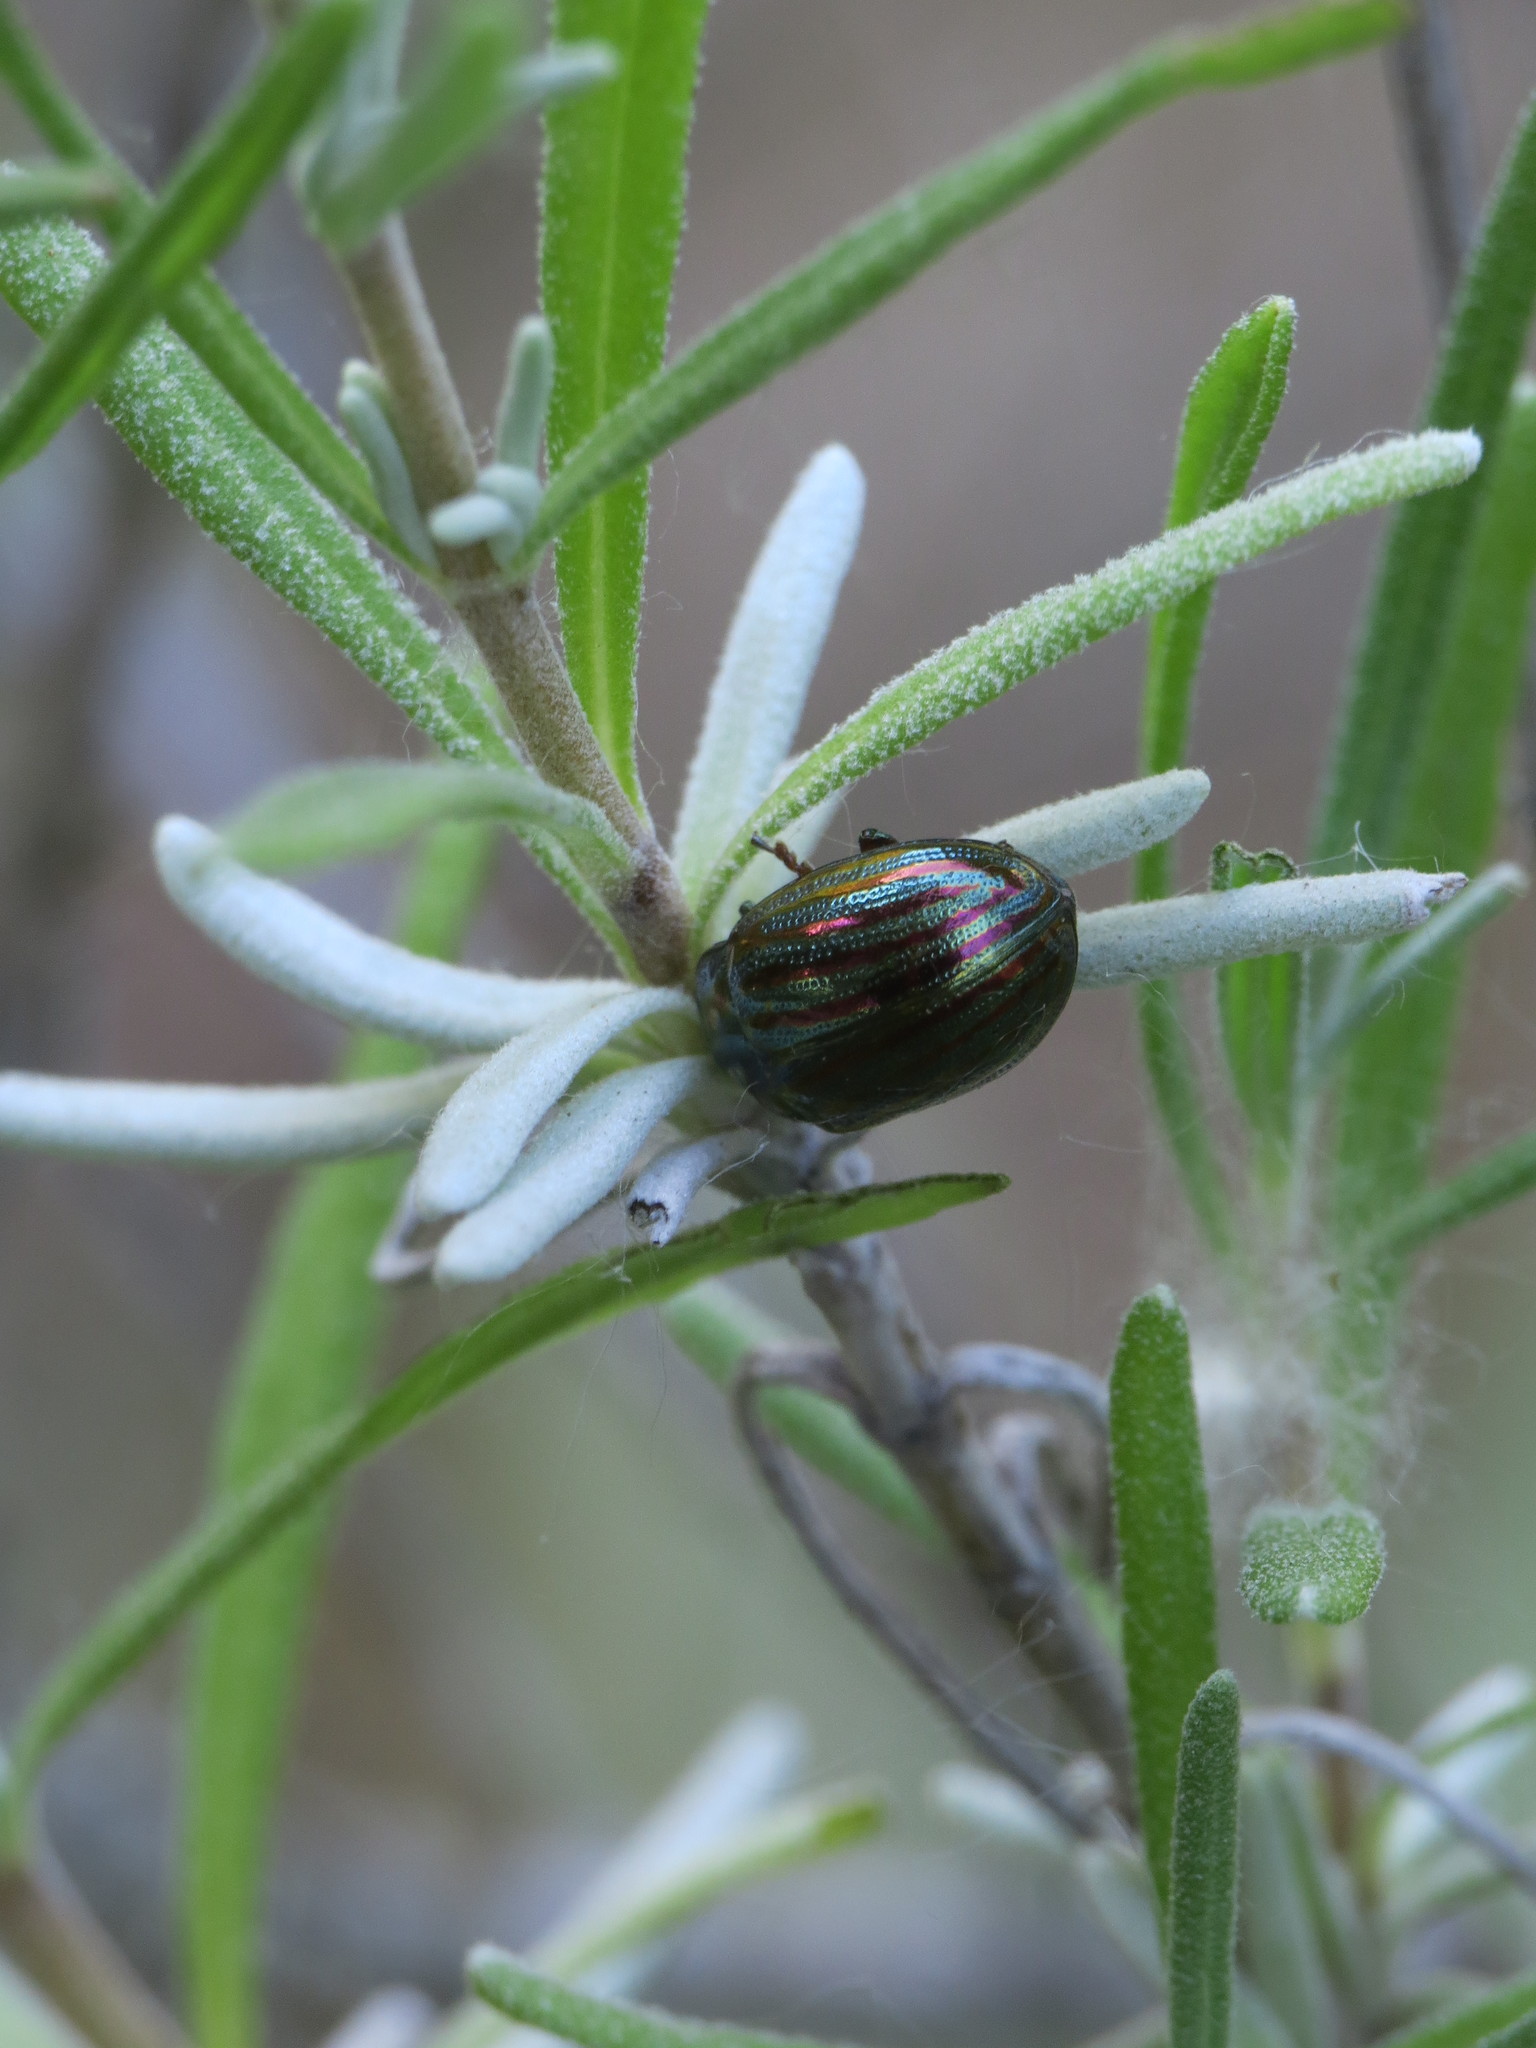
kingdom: Animalia
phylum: Arthropoda
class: Insecta
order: Coleoptera
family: Chrysomelidae
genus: Chrysolina
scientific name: Chrysolina americana
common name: Rosemary beetle
